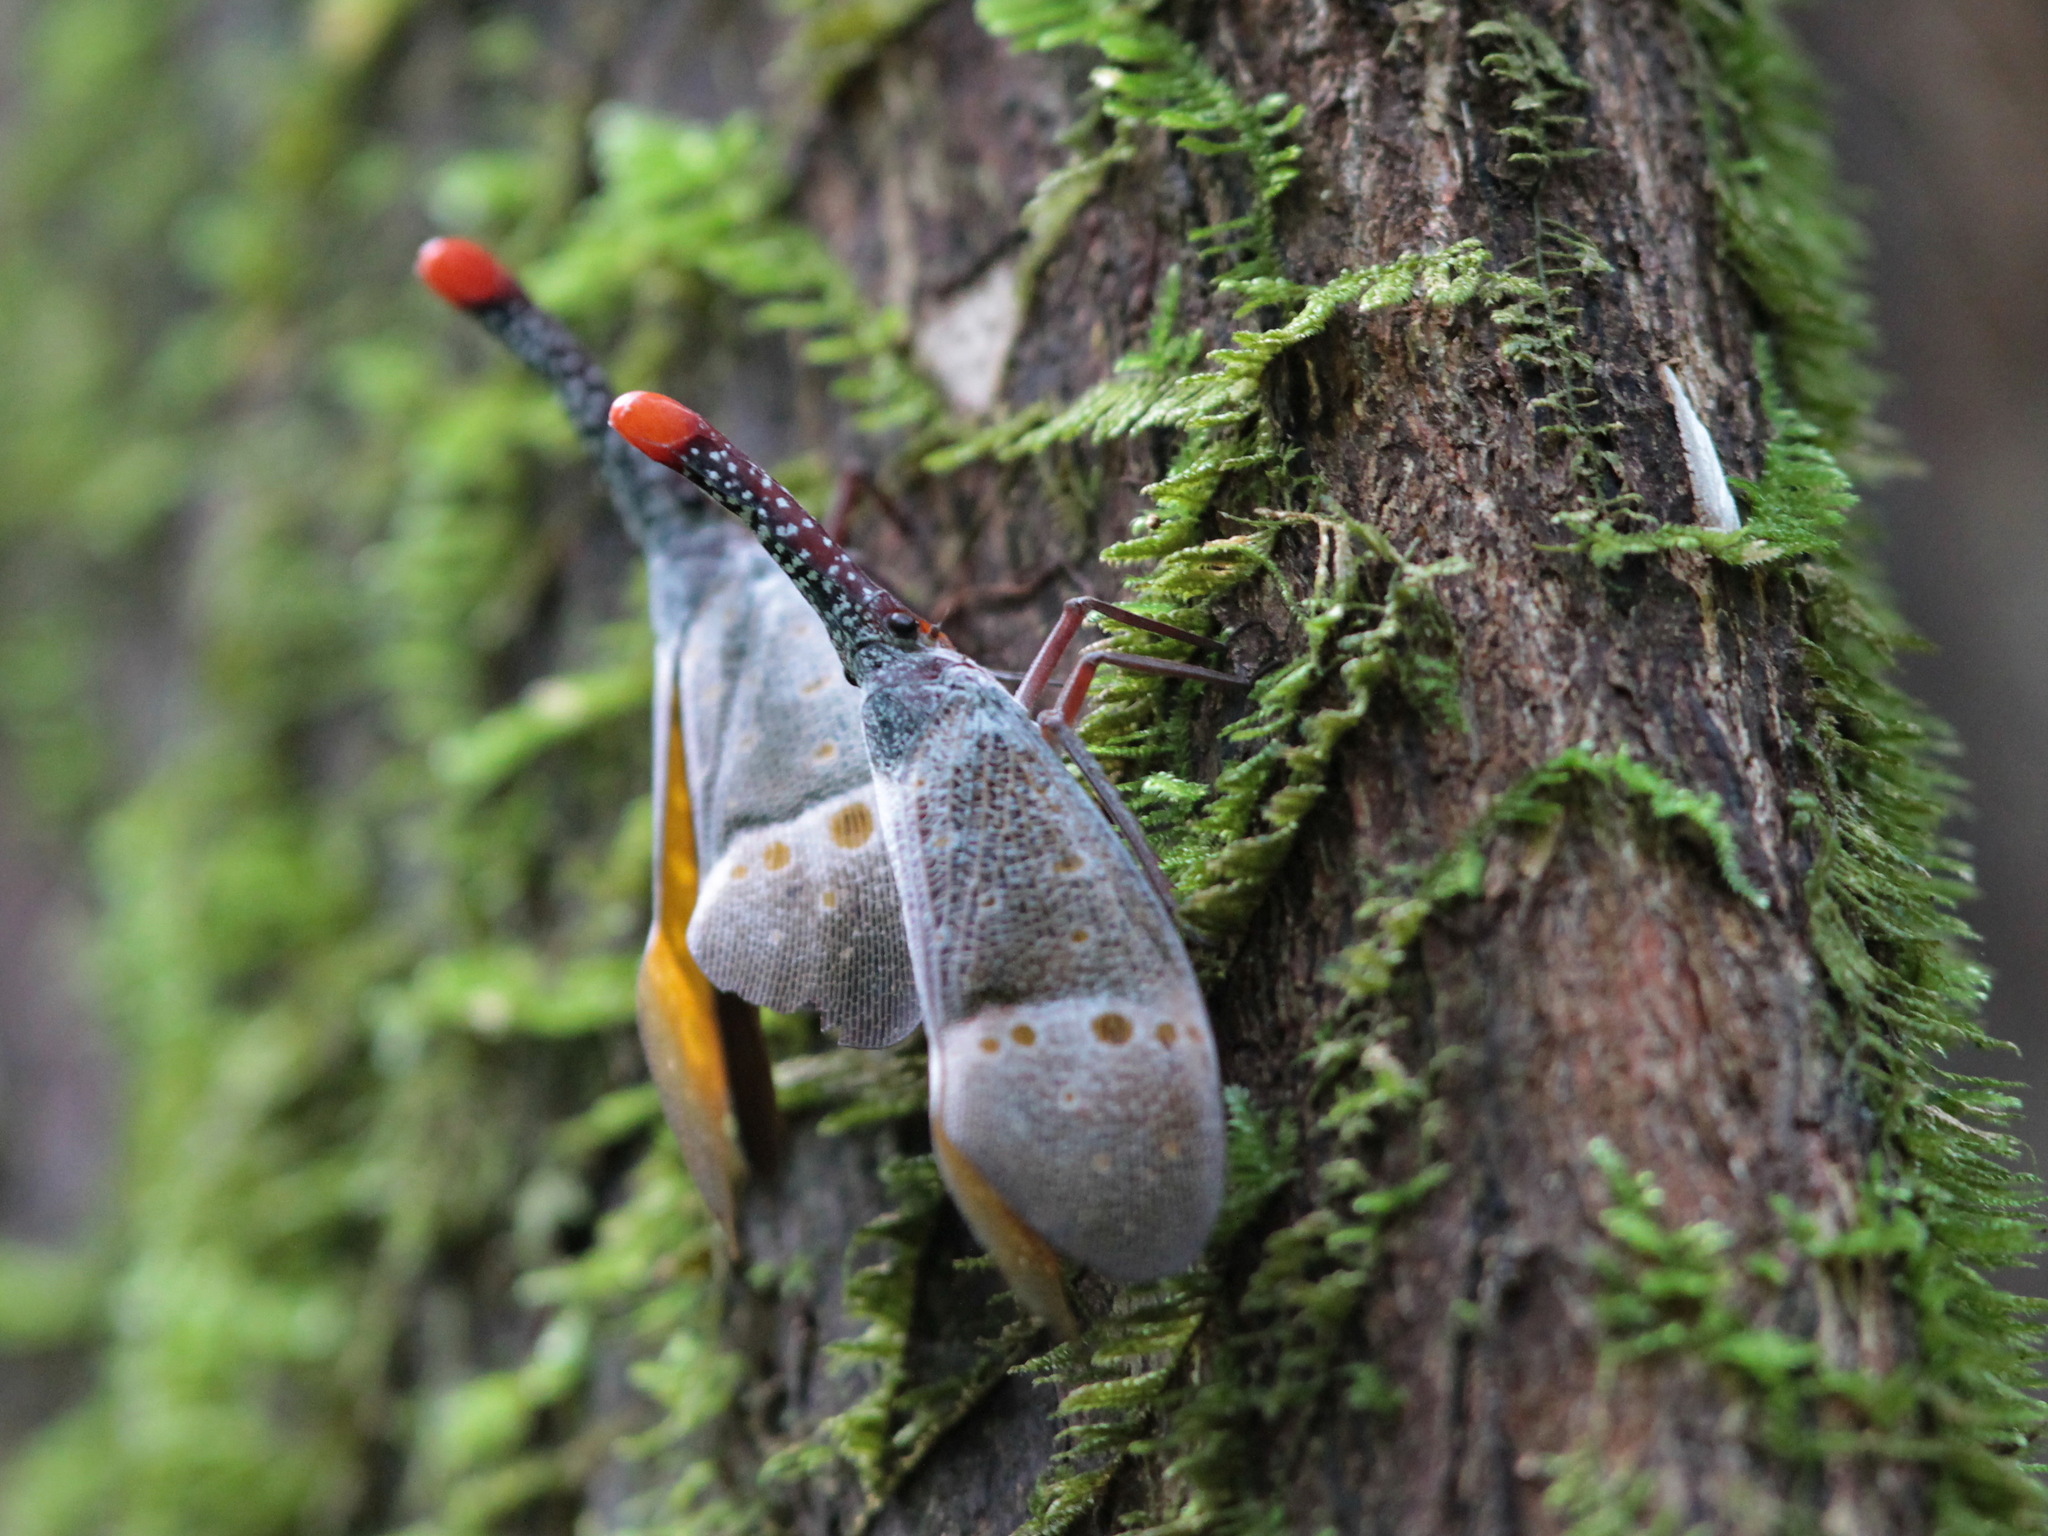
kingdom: Animalia
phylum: Arthropoda
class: Insecta
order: Hemiptera
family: Fulgoridae
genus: Pyrops
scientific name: Pyrops pyrorhynchus
